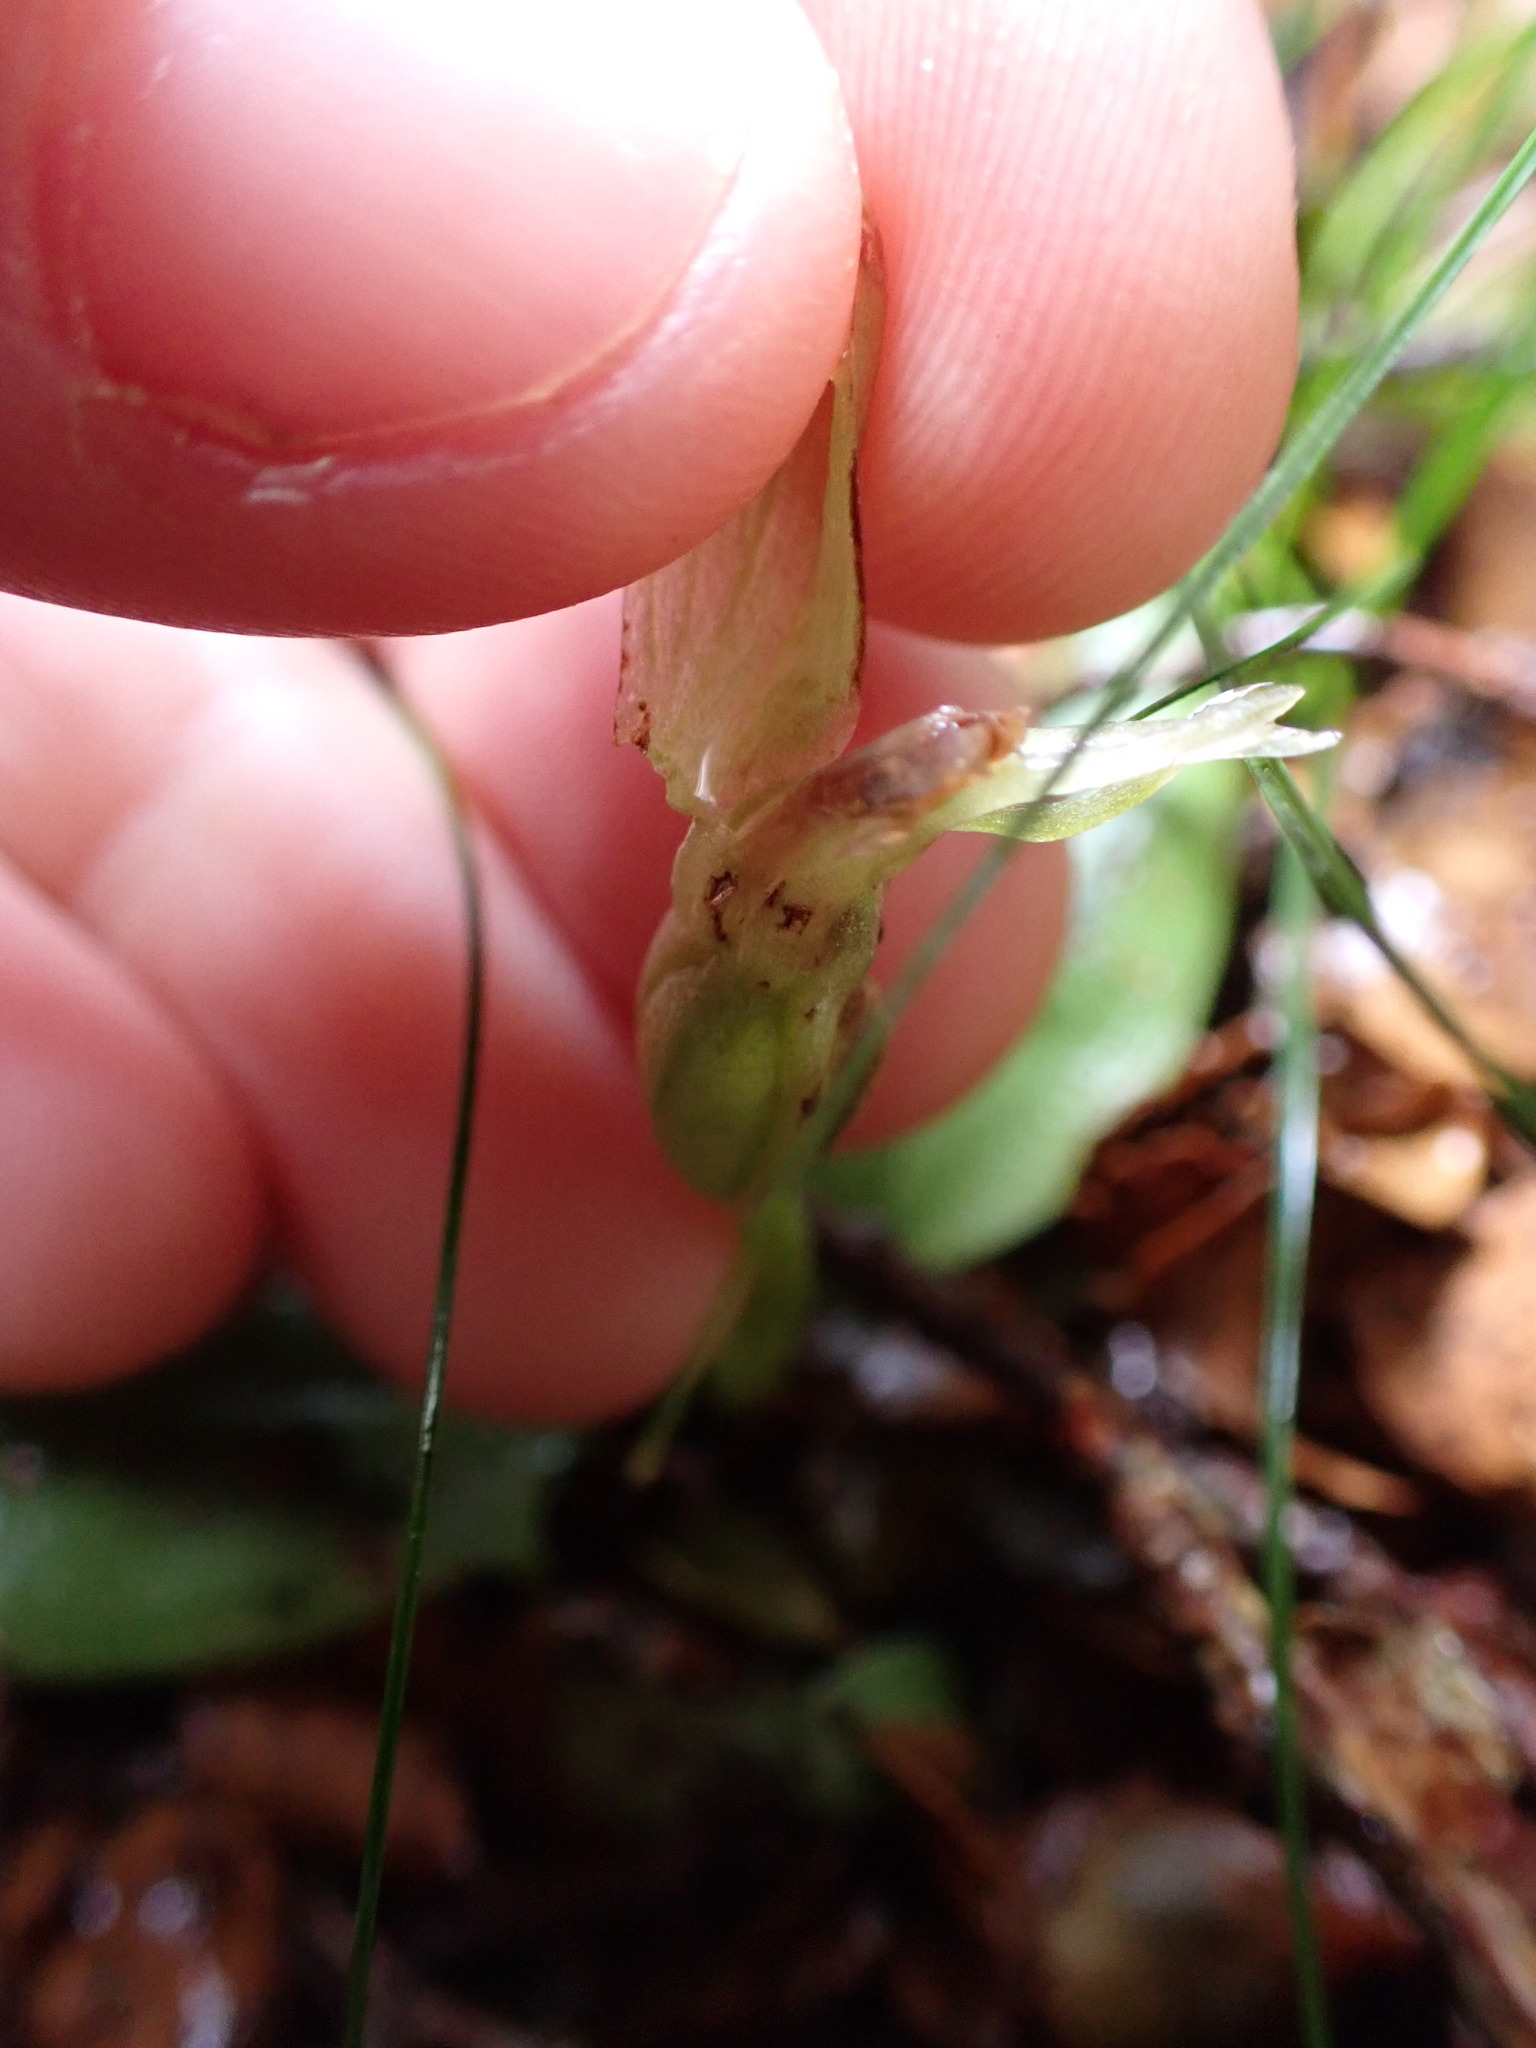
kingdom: Plantae
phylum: Tracheophyta
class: Liliopsida
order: Asparagales
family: Orchidaceae
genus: Chiloglottis
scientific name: Chiloglottis cornuta
